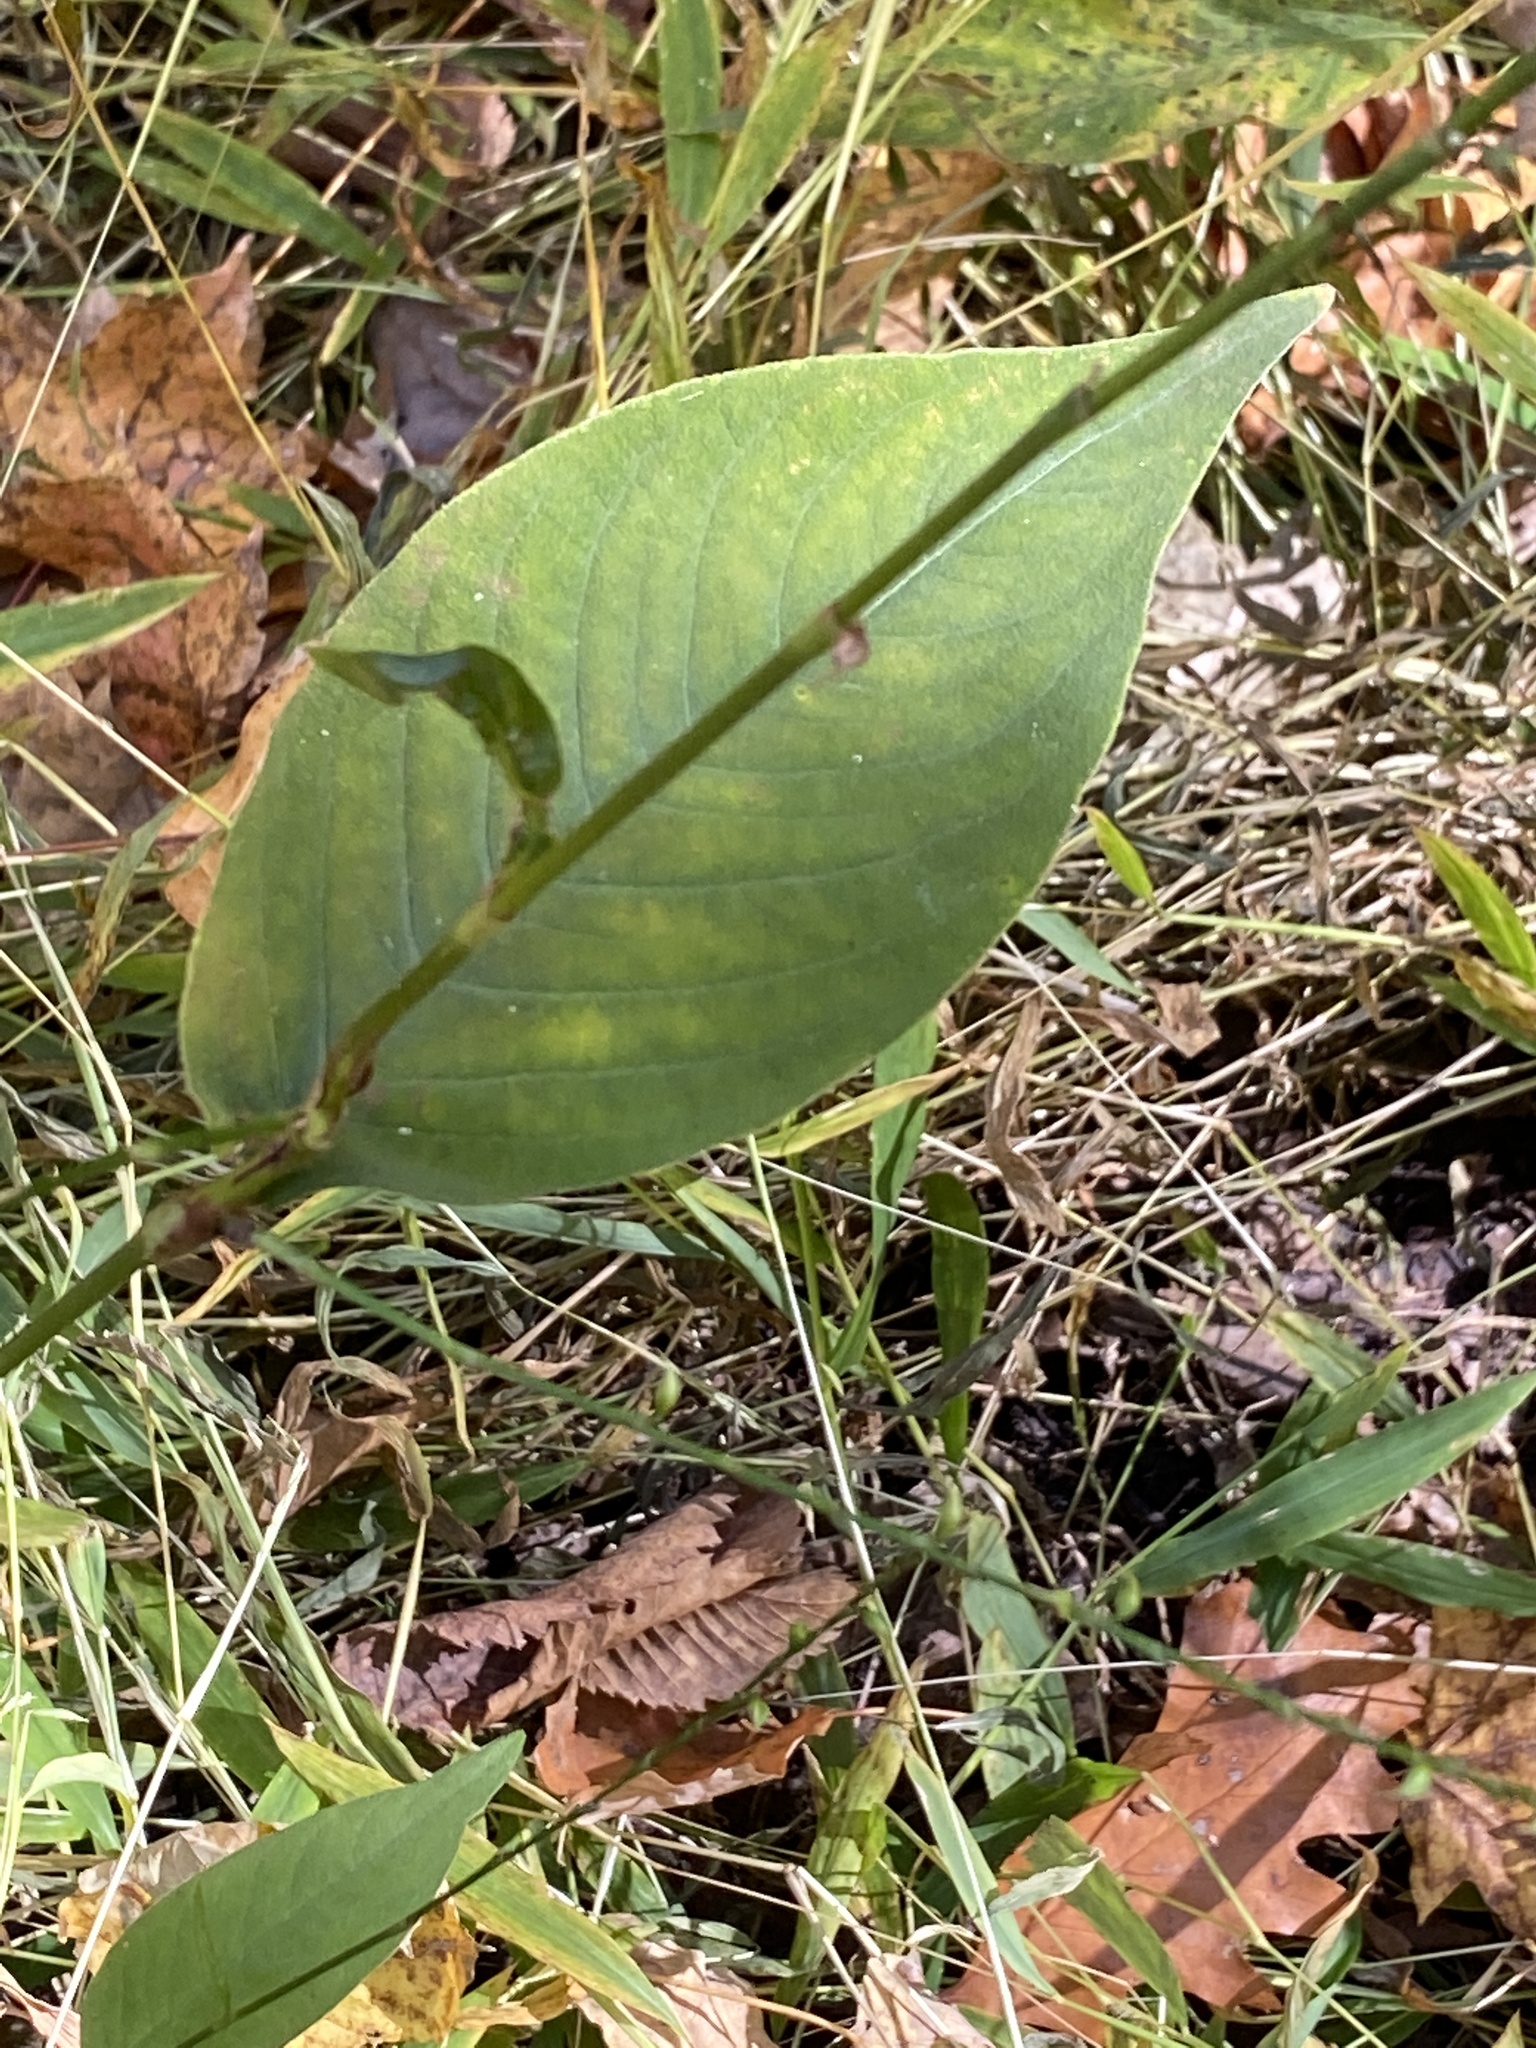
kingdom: Plantae
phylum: Tracheophyta
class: Magnoliopsida
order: Caryophyllales
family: Polygonaceae
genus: Persicaria
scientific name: Persicaria virginiana
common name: Jumpseed
